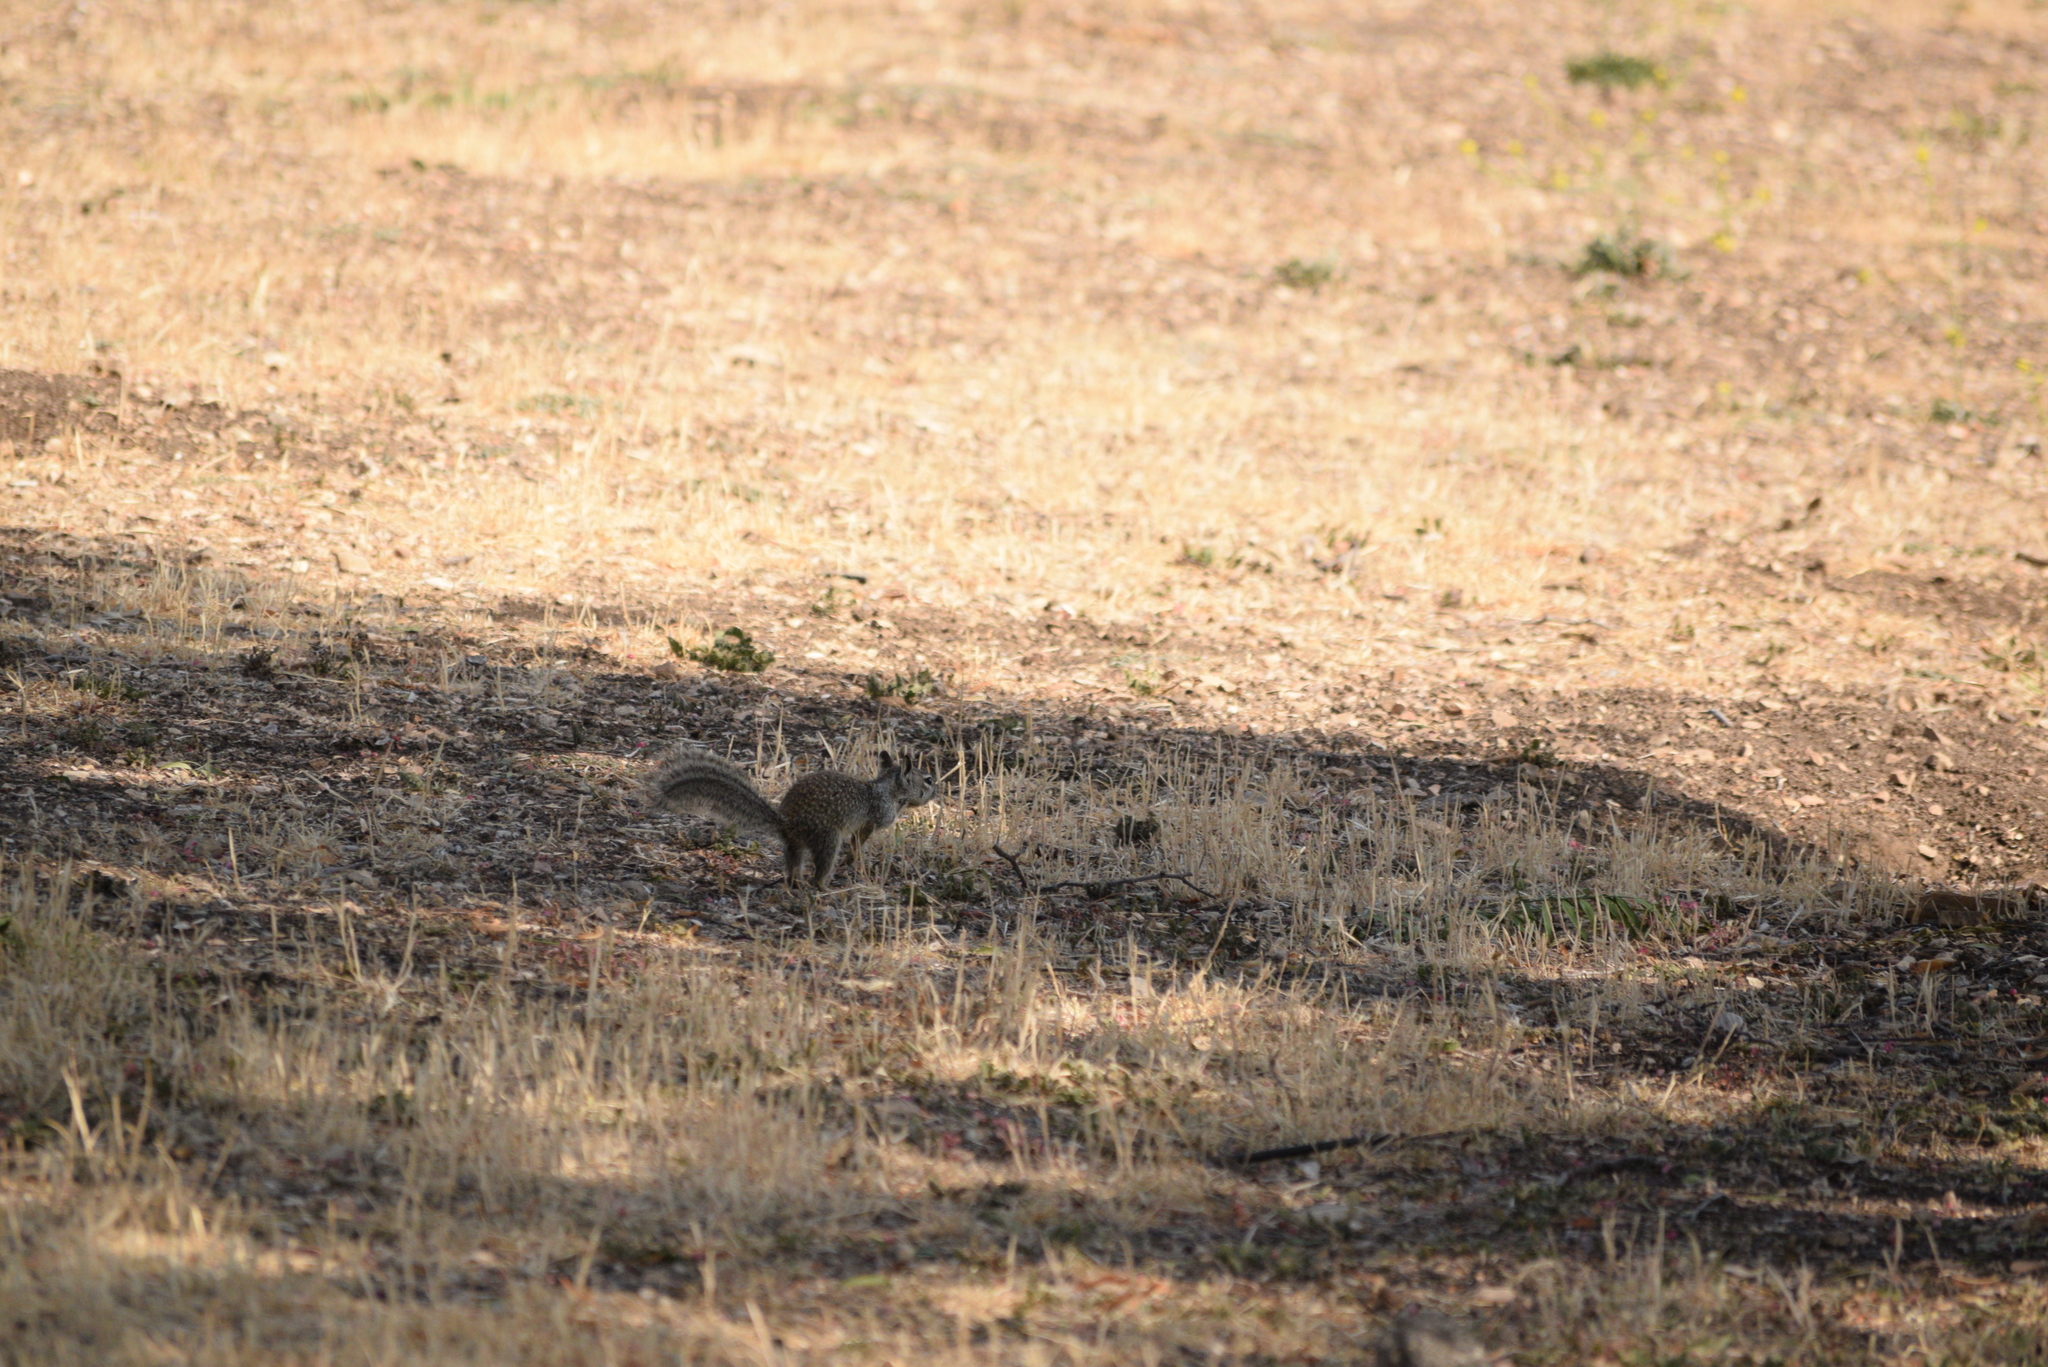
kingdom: Animalia
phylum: Chordata
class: Mammalia
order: Rodentia
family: Sciuridae
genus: Otospermophilus
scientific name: Otospermophilus beecheyi
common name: California ground squirrel
